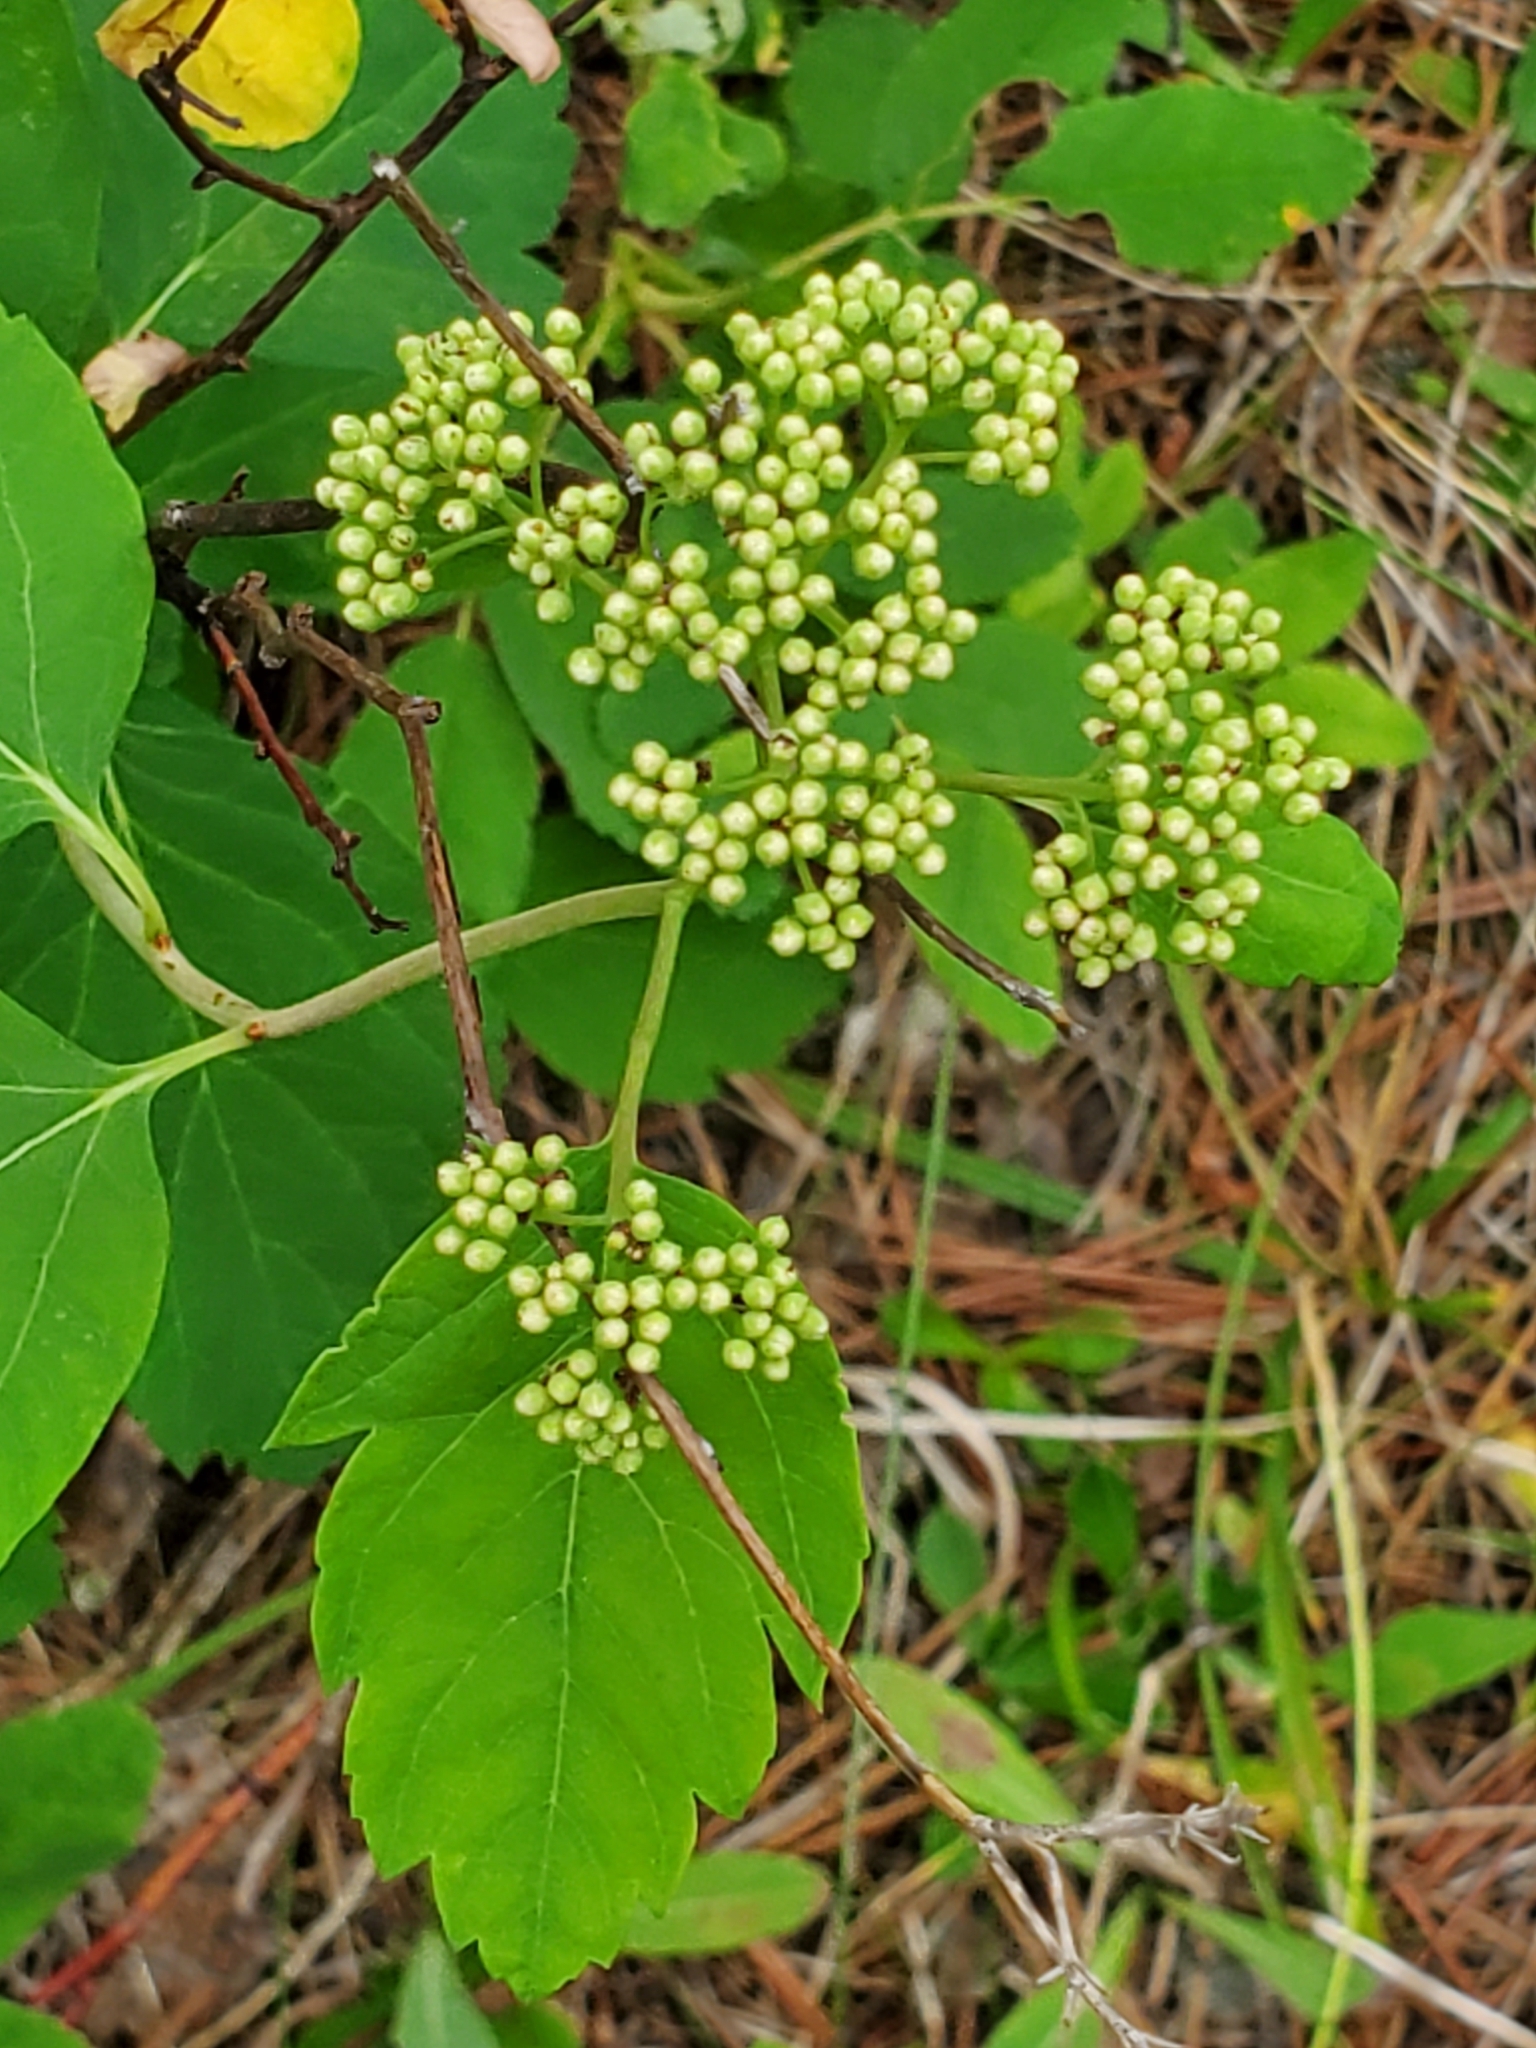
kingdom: Plantae
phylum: Tracheophyta
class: Magnoliopsida
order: Rosales
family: Rosaceae
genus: Spiraea
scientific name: Spiraea lucida
